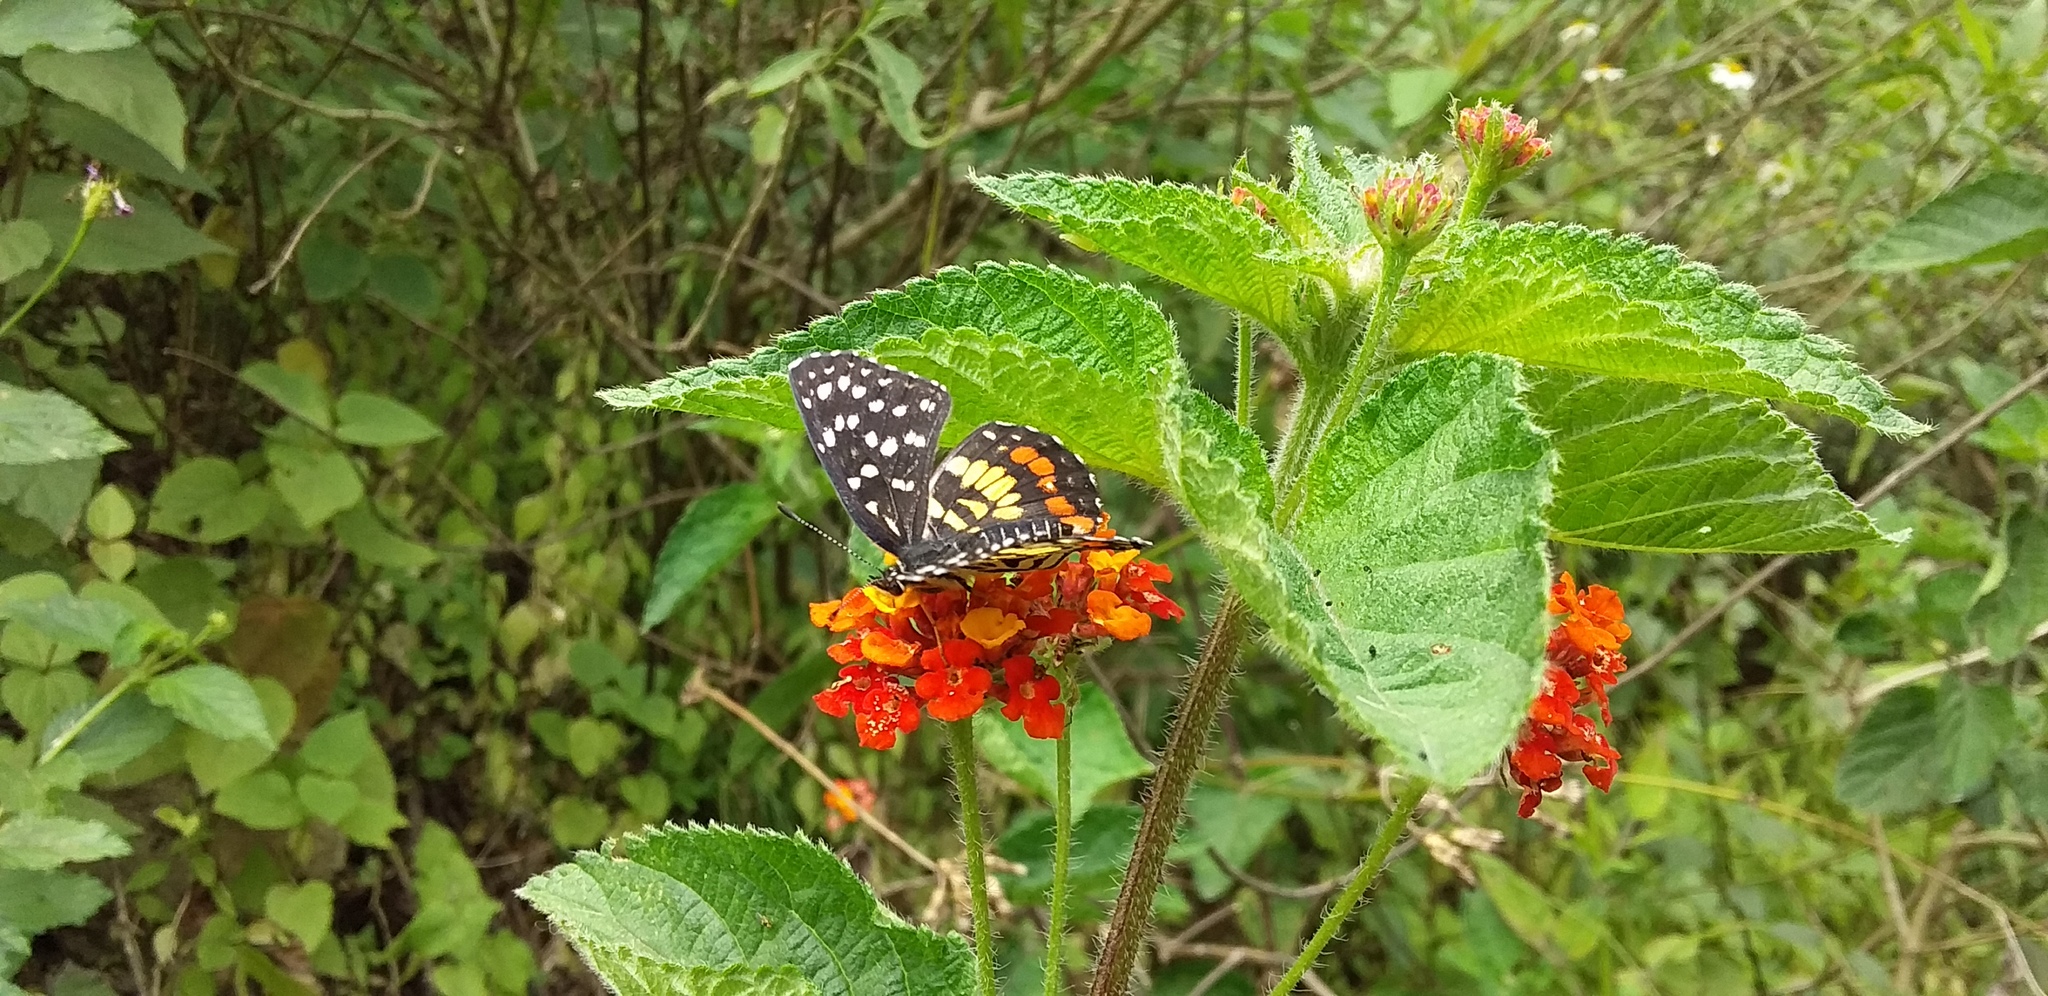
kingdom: Animalia
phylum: Arthropoda
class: Insecta
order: Lepidoptera
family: Nymphalidae
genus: Chlosyne
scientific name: Chlosyne marina
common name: Red-spotted patch
